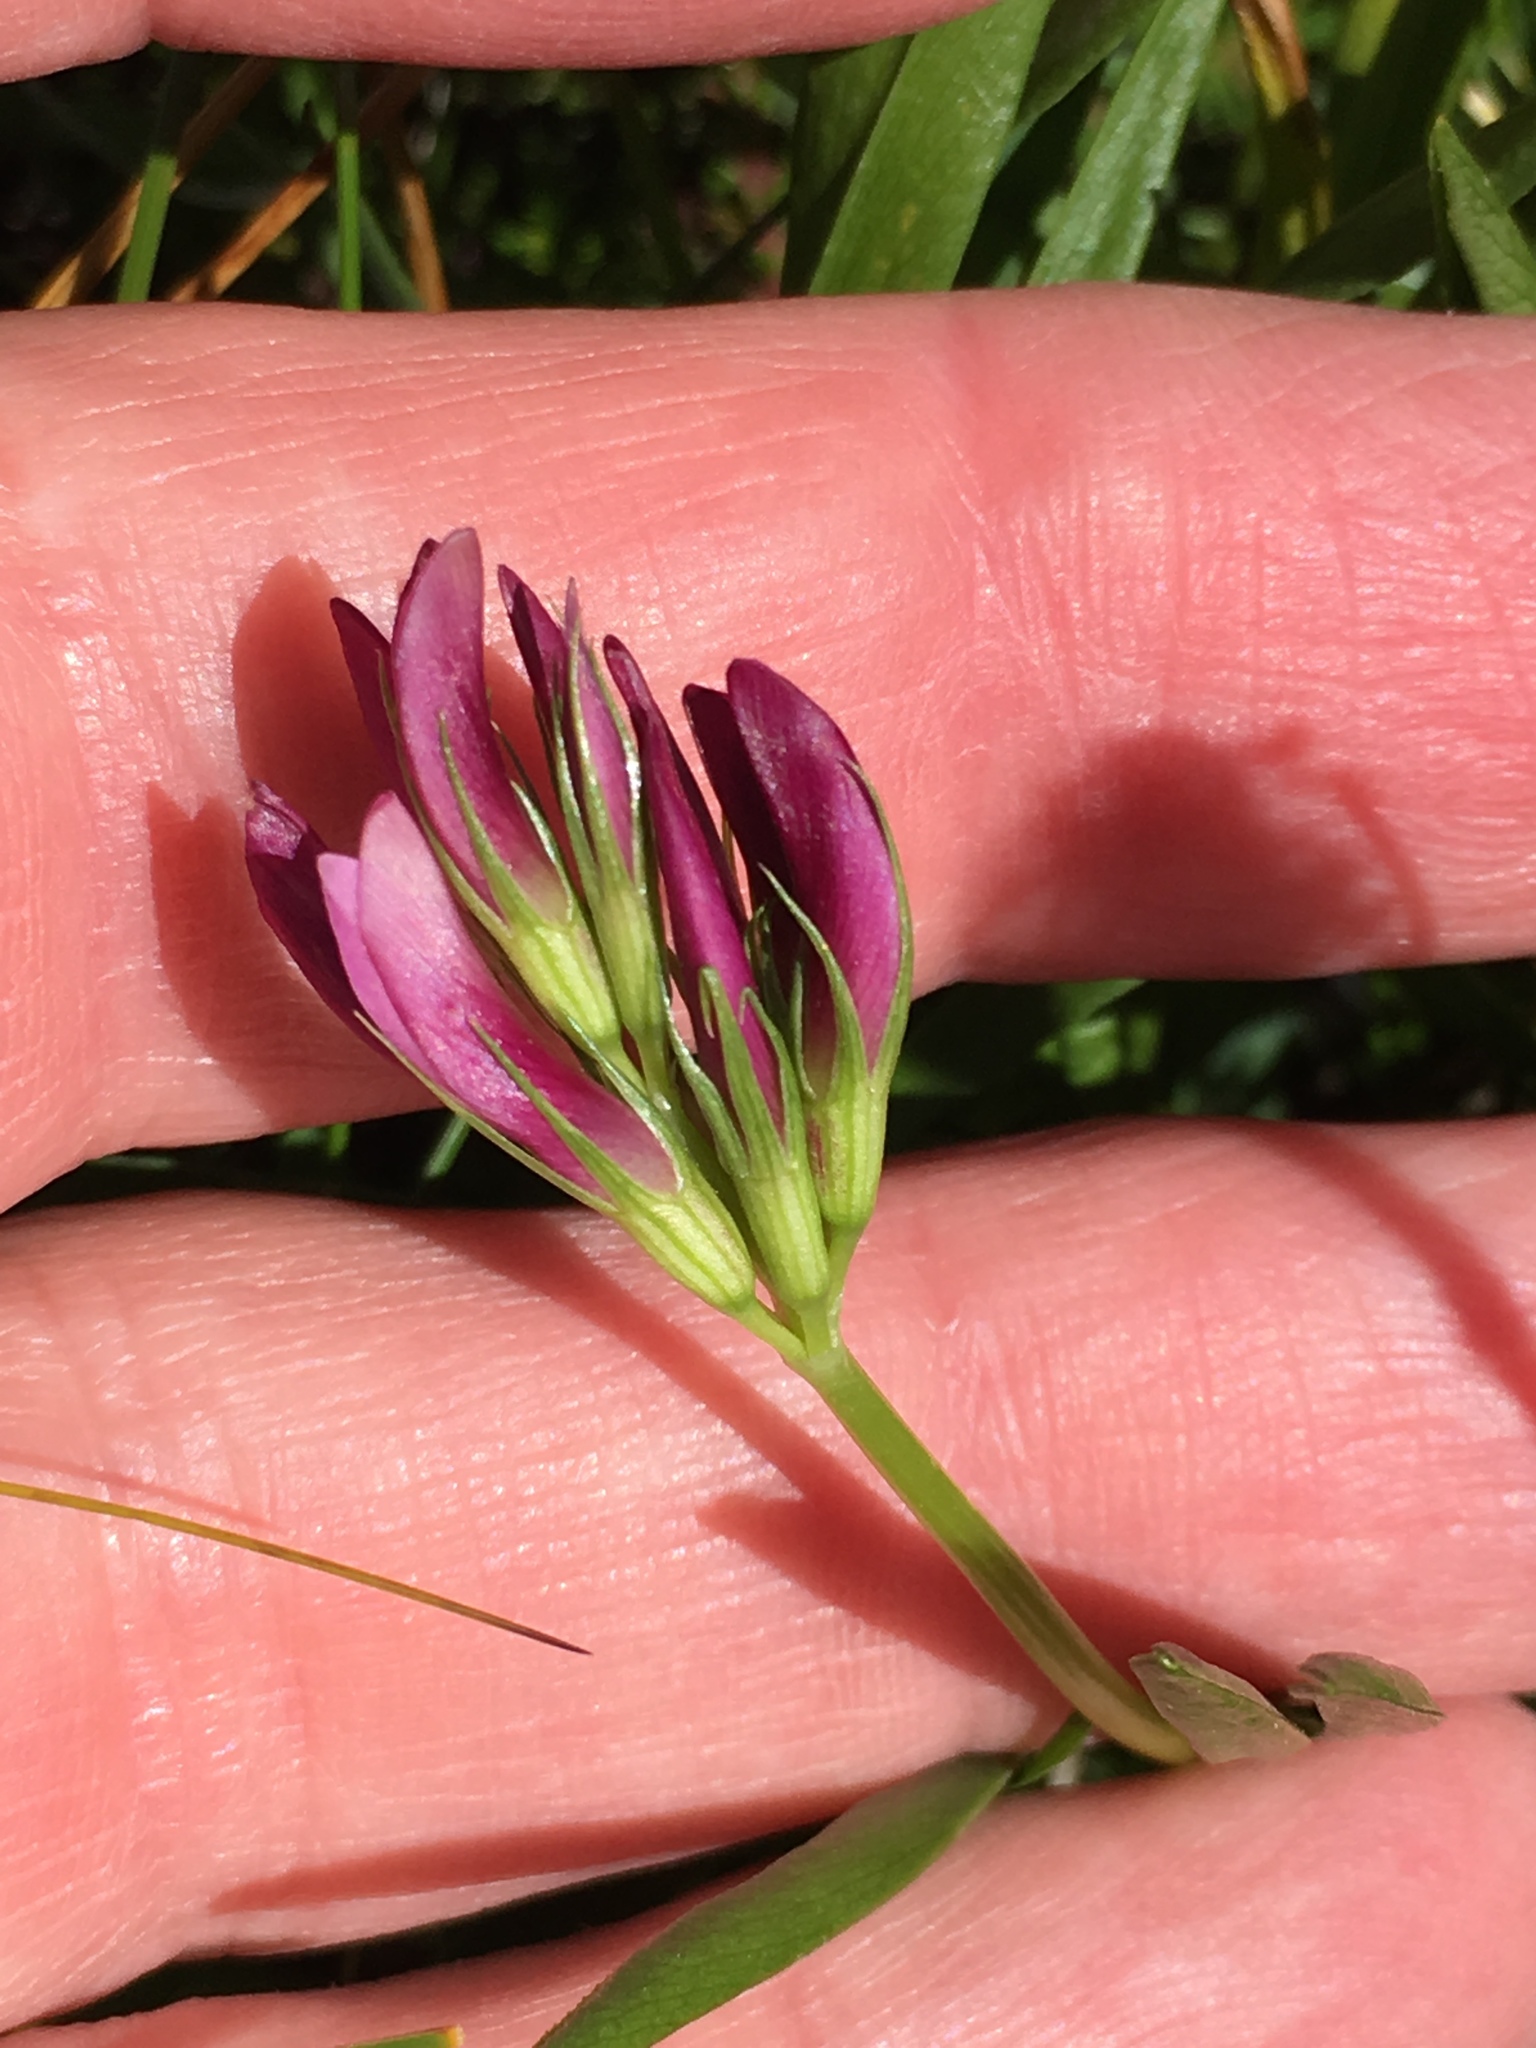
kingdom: Plantae
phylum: Tracheophyta
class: Magnoliopsida
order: Fabales
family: Fabaceae
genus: Trifolium
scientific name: Trifolium alpinum
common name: Alpine clover
